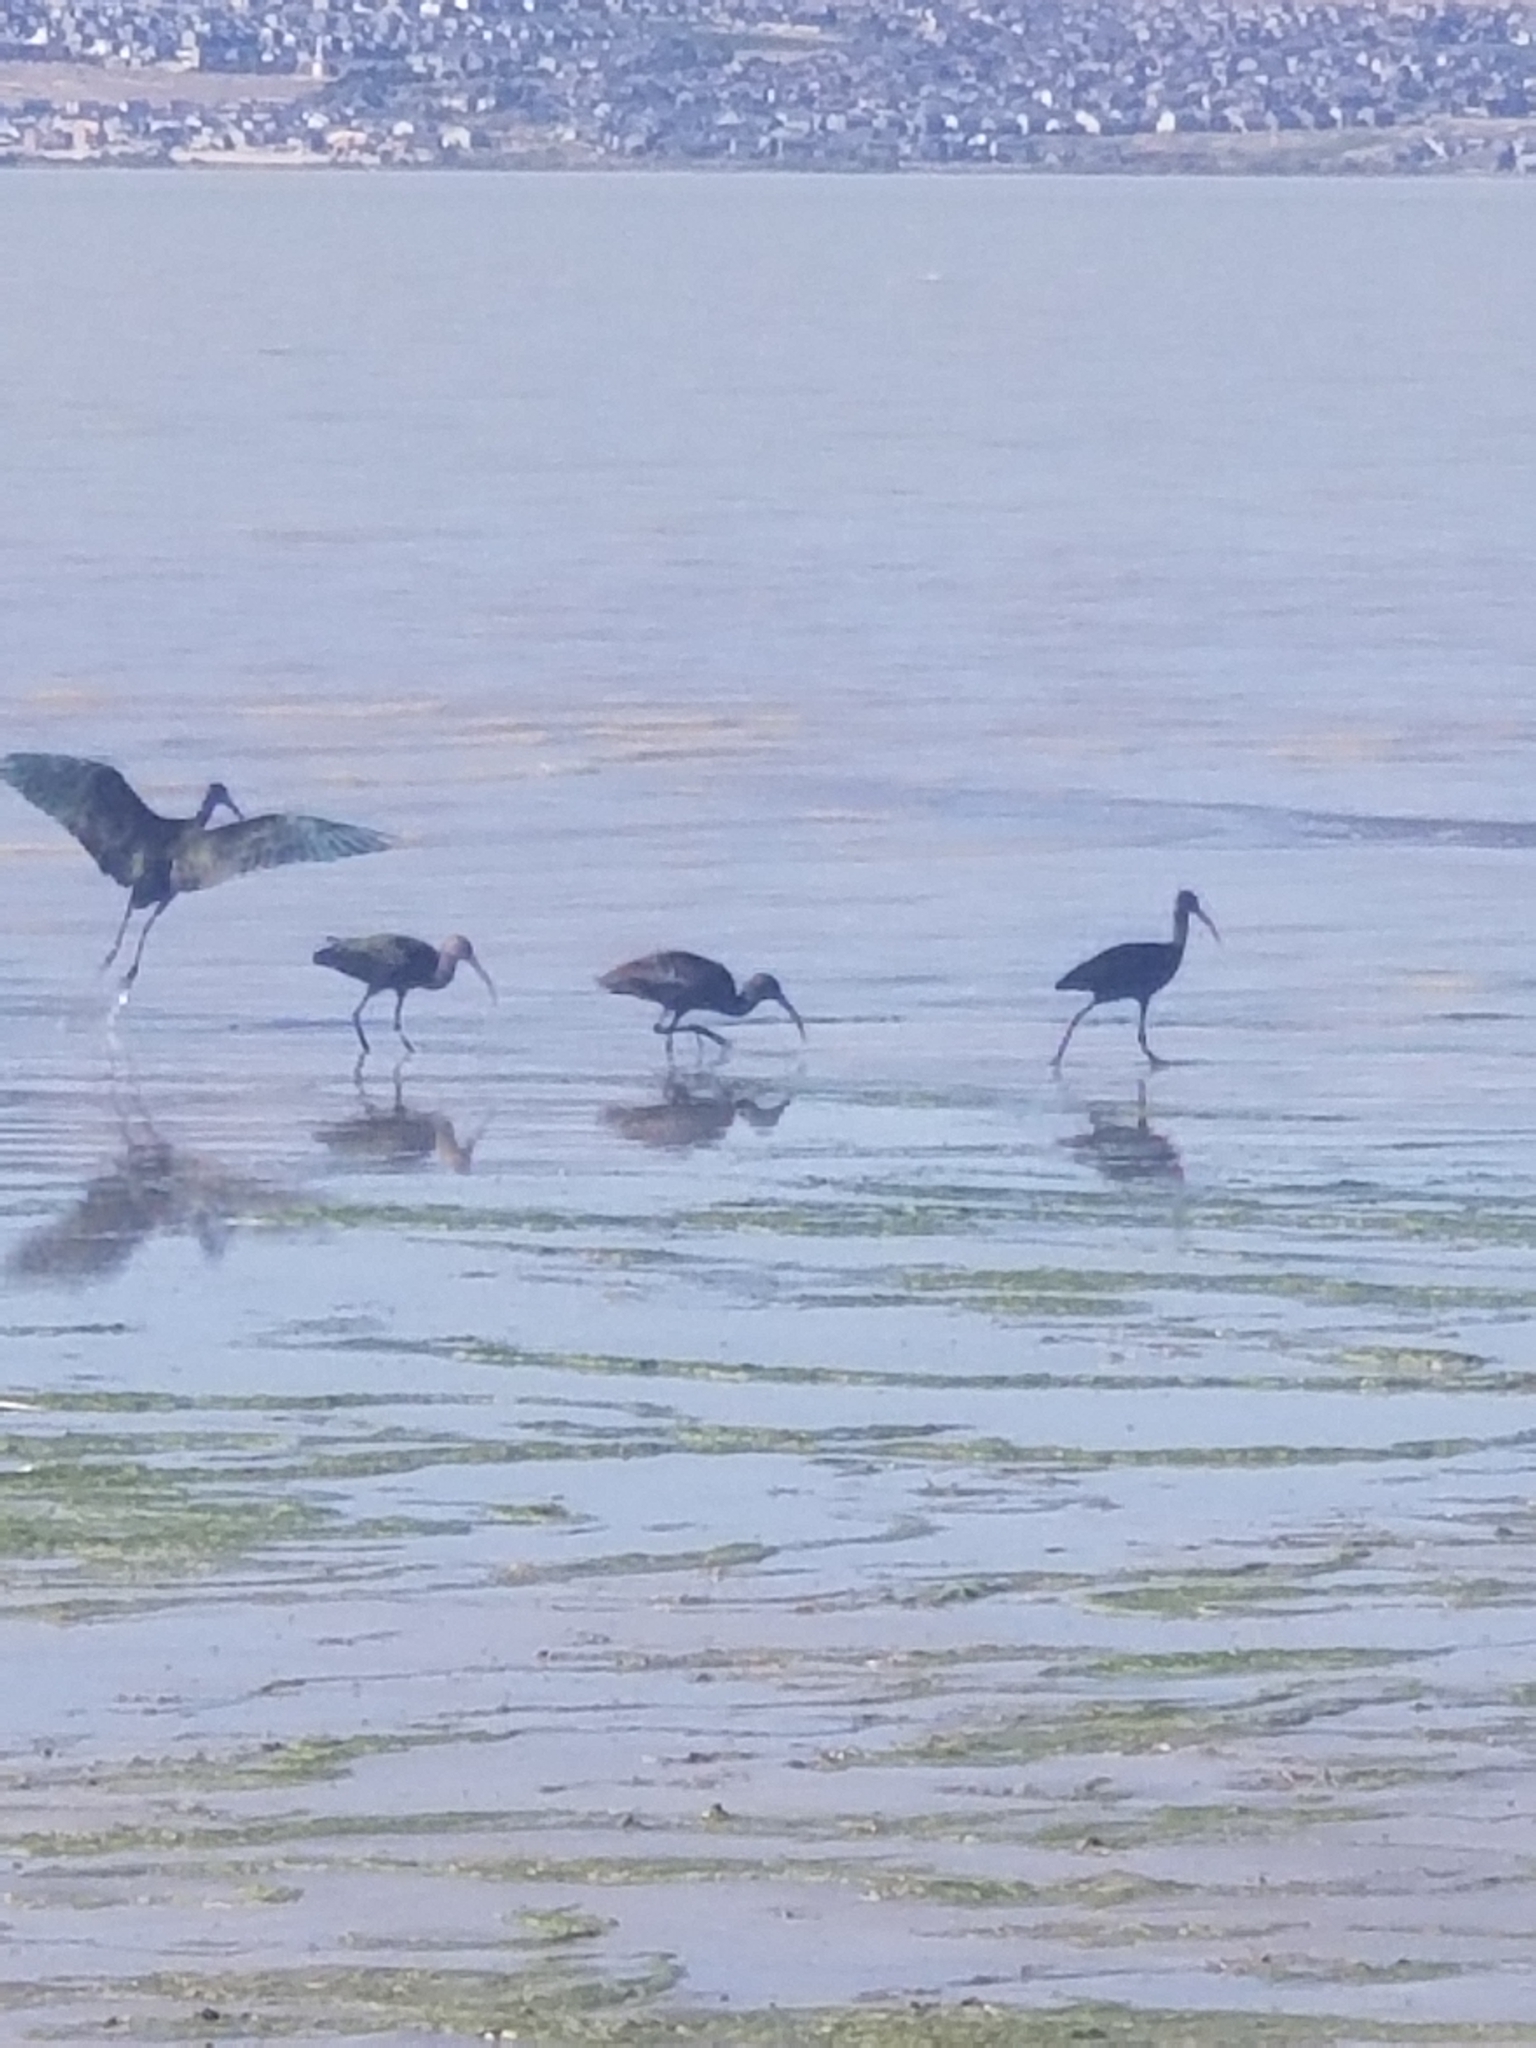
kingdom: Animalia
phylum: Chordata
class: Aves
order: Pelecaniformes
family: Threskiornithidae
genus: Plegadis
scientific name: Plegadis chihi
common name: White-faced ibis
